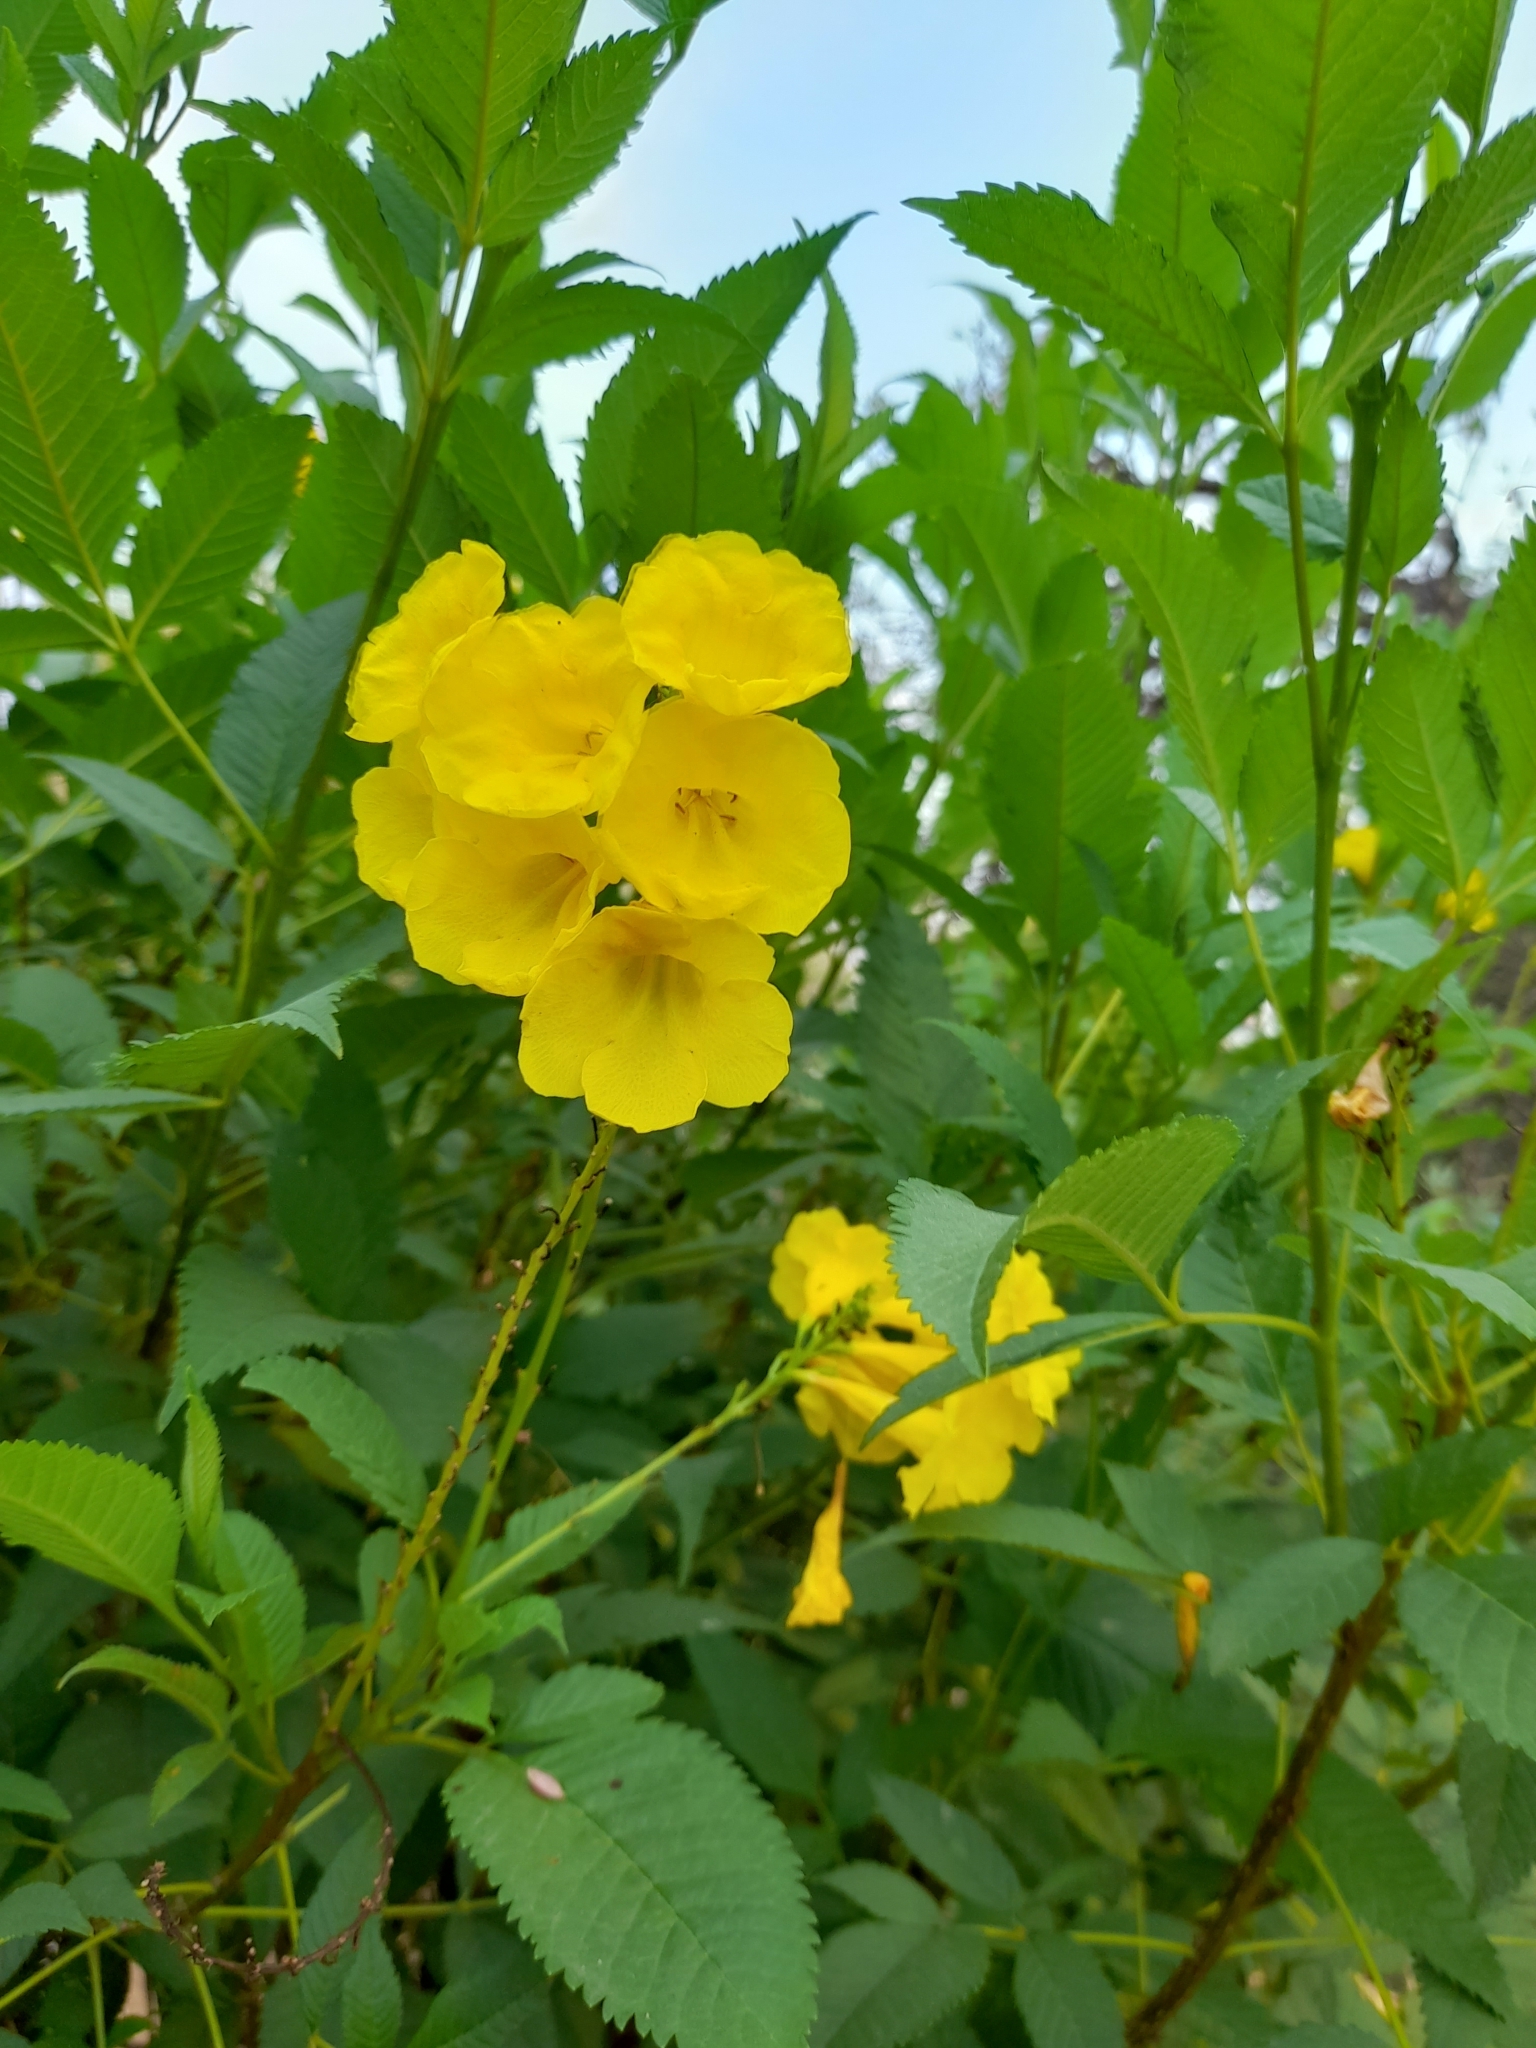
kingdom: Plantae
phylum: Tracheophyta
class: Magnoliopsida
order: Lamiales
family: Bignoniaceae
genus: Tecoma
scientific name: Tecoma stans
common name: Yellow trumpetbush
